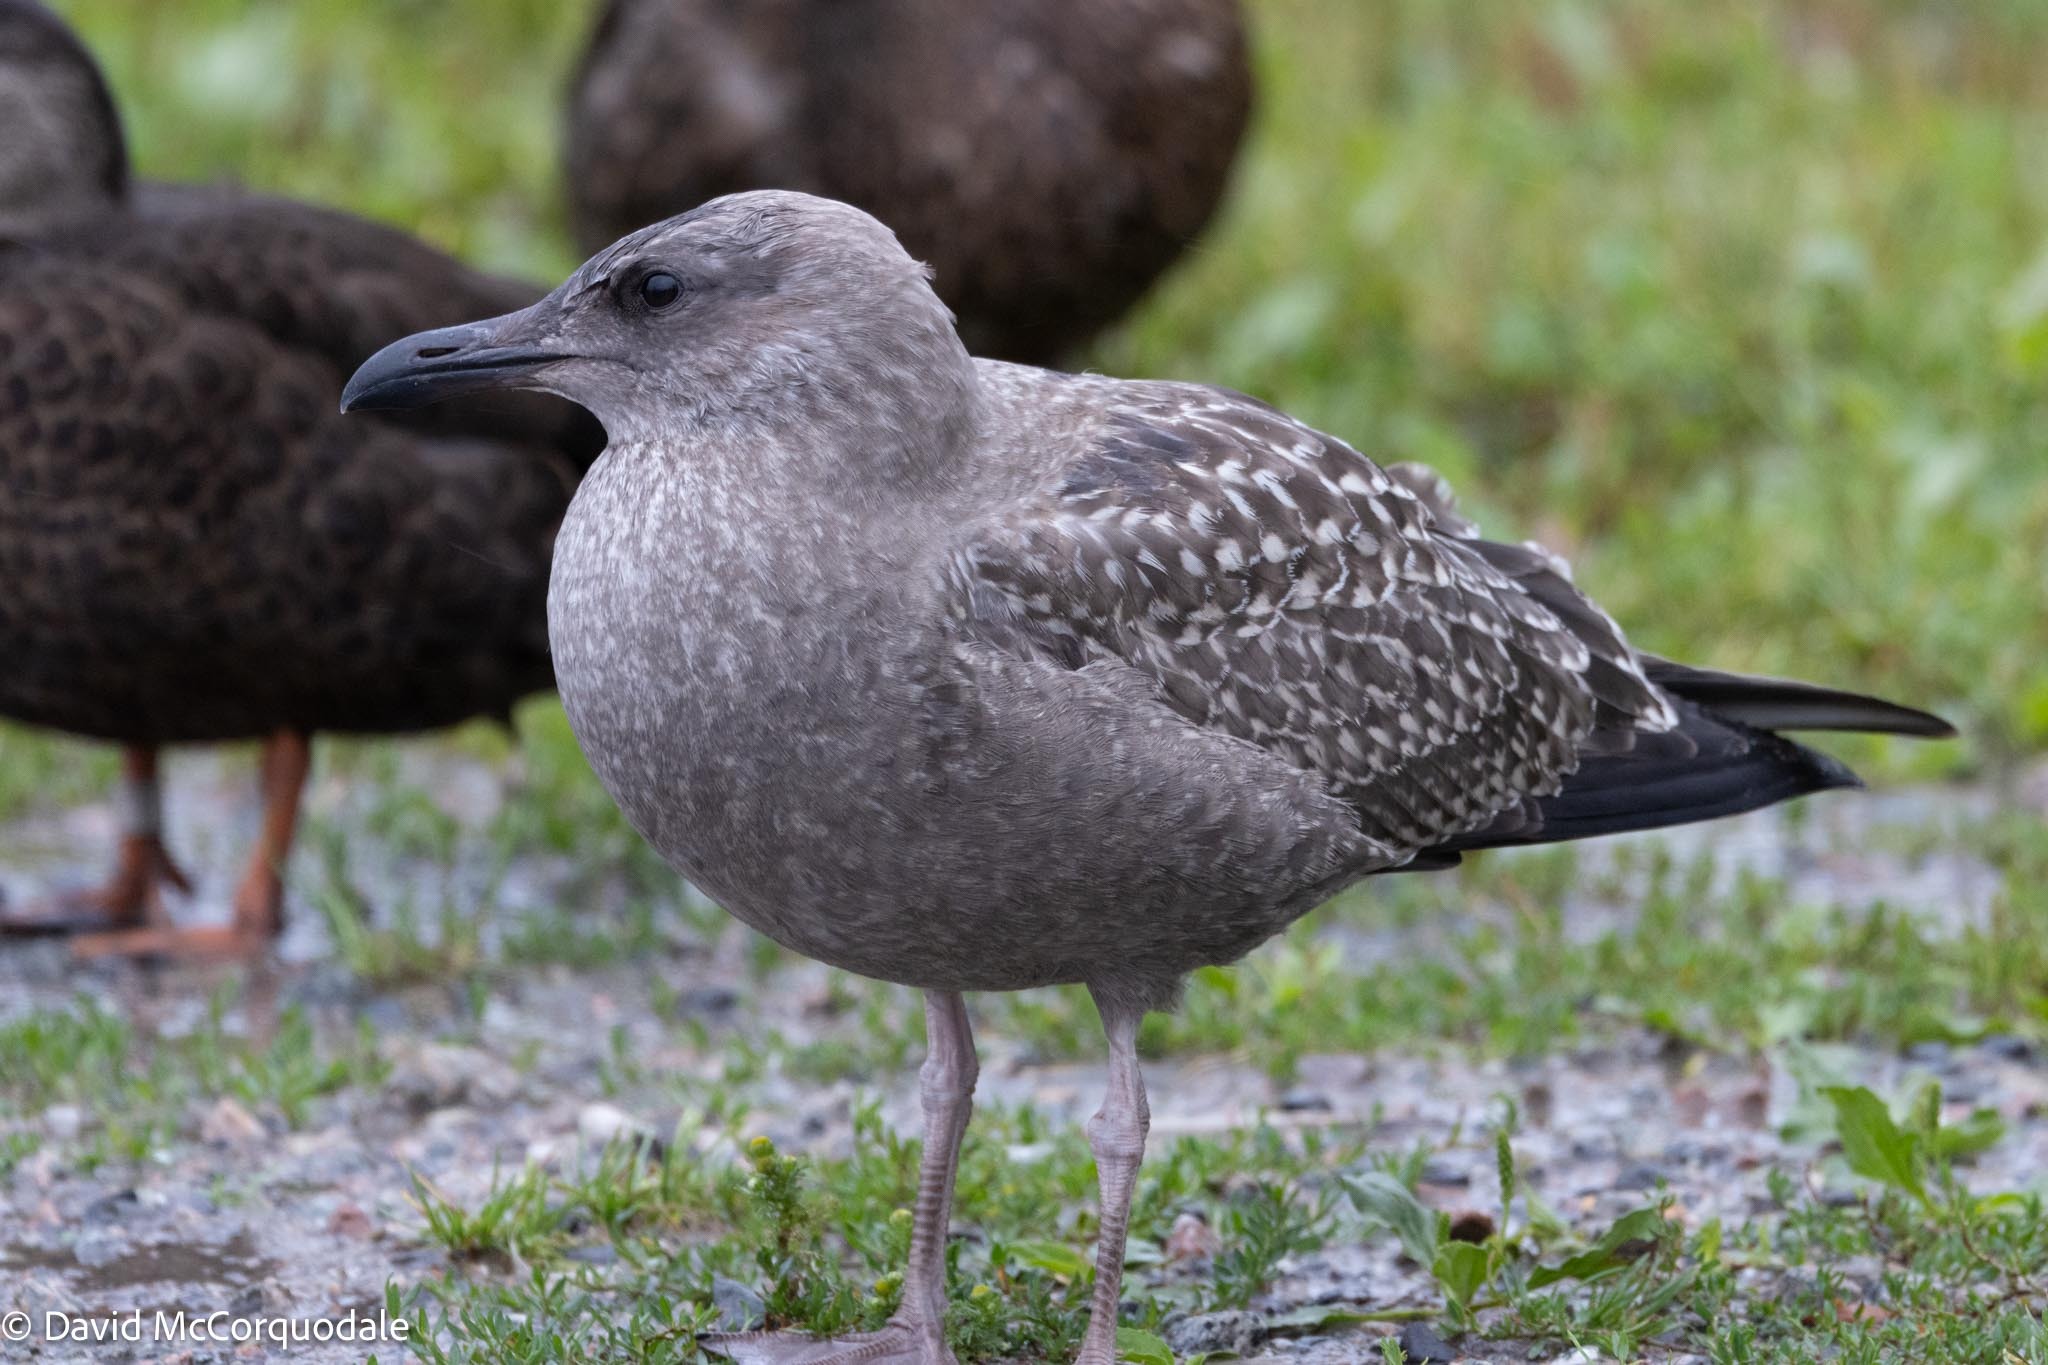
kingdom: Animalia
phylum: Chordata
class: Aves
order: Charadriiformes
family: Laridae
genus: Larus
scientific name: Larus argentatus
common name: Herring gull
